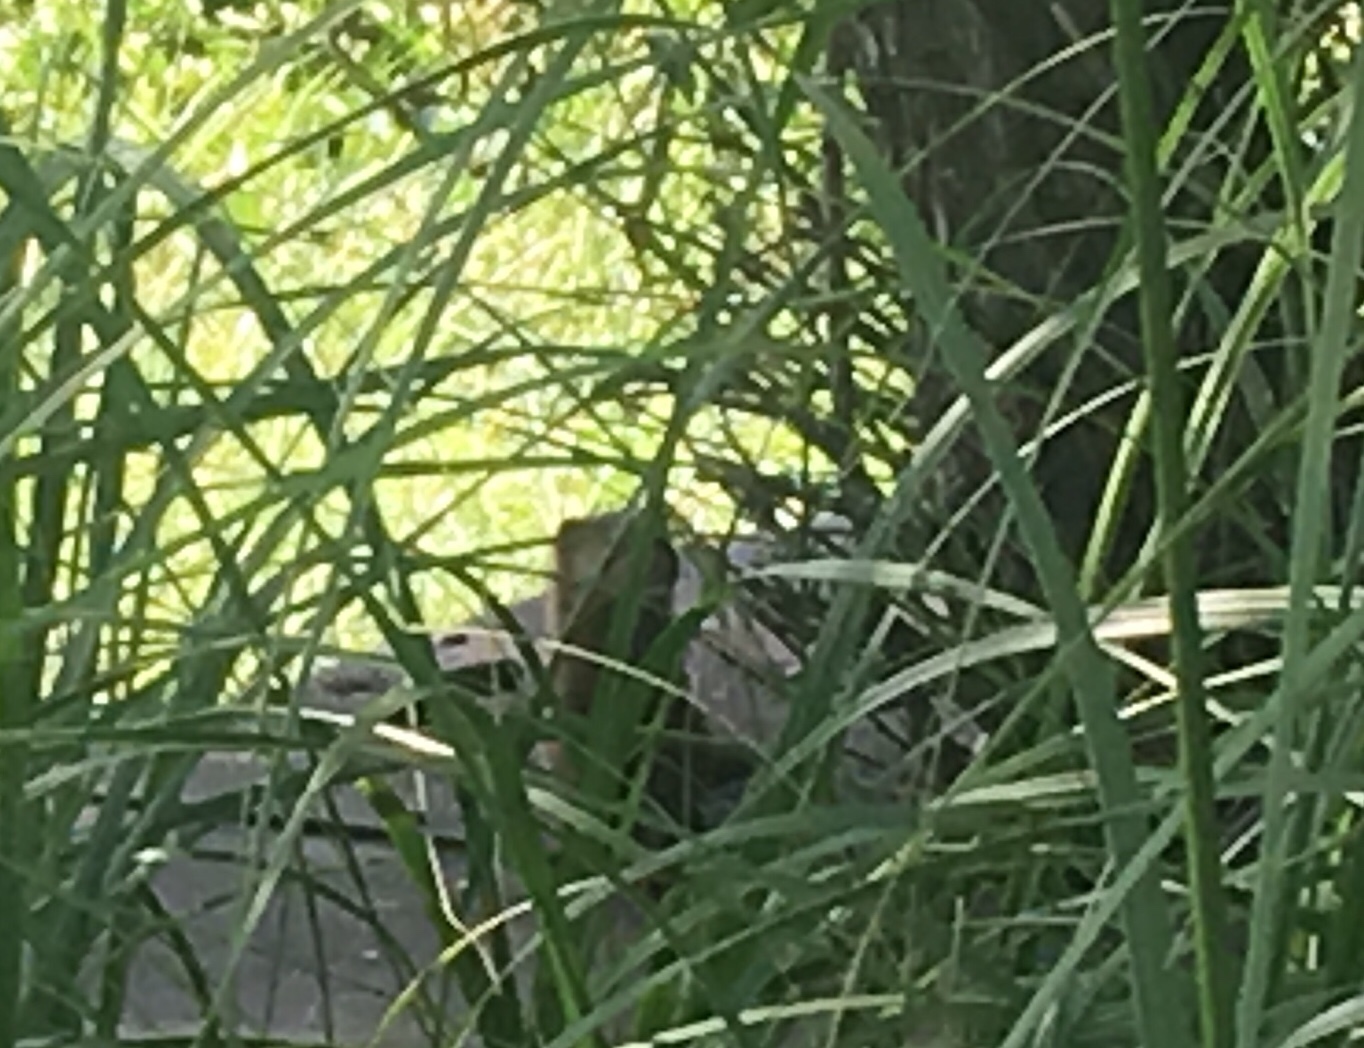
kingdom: Animalia
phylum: Chordata
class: Mammalia
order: Carnivora
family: Mustelidae
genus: Mustela
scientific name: Mustela
